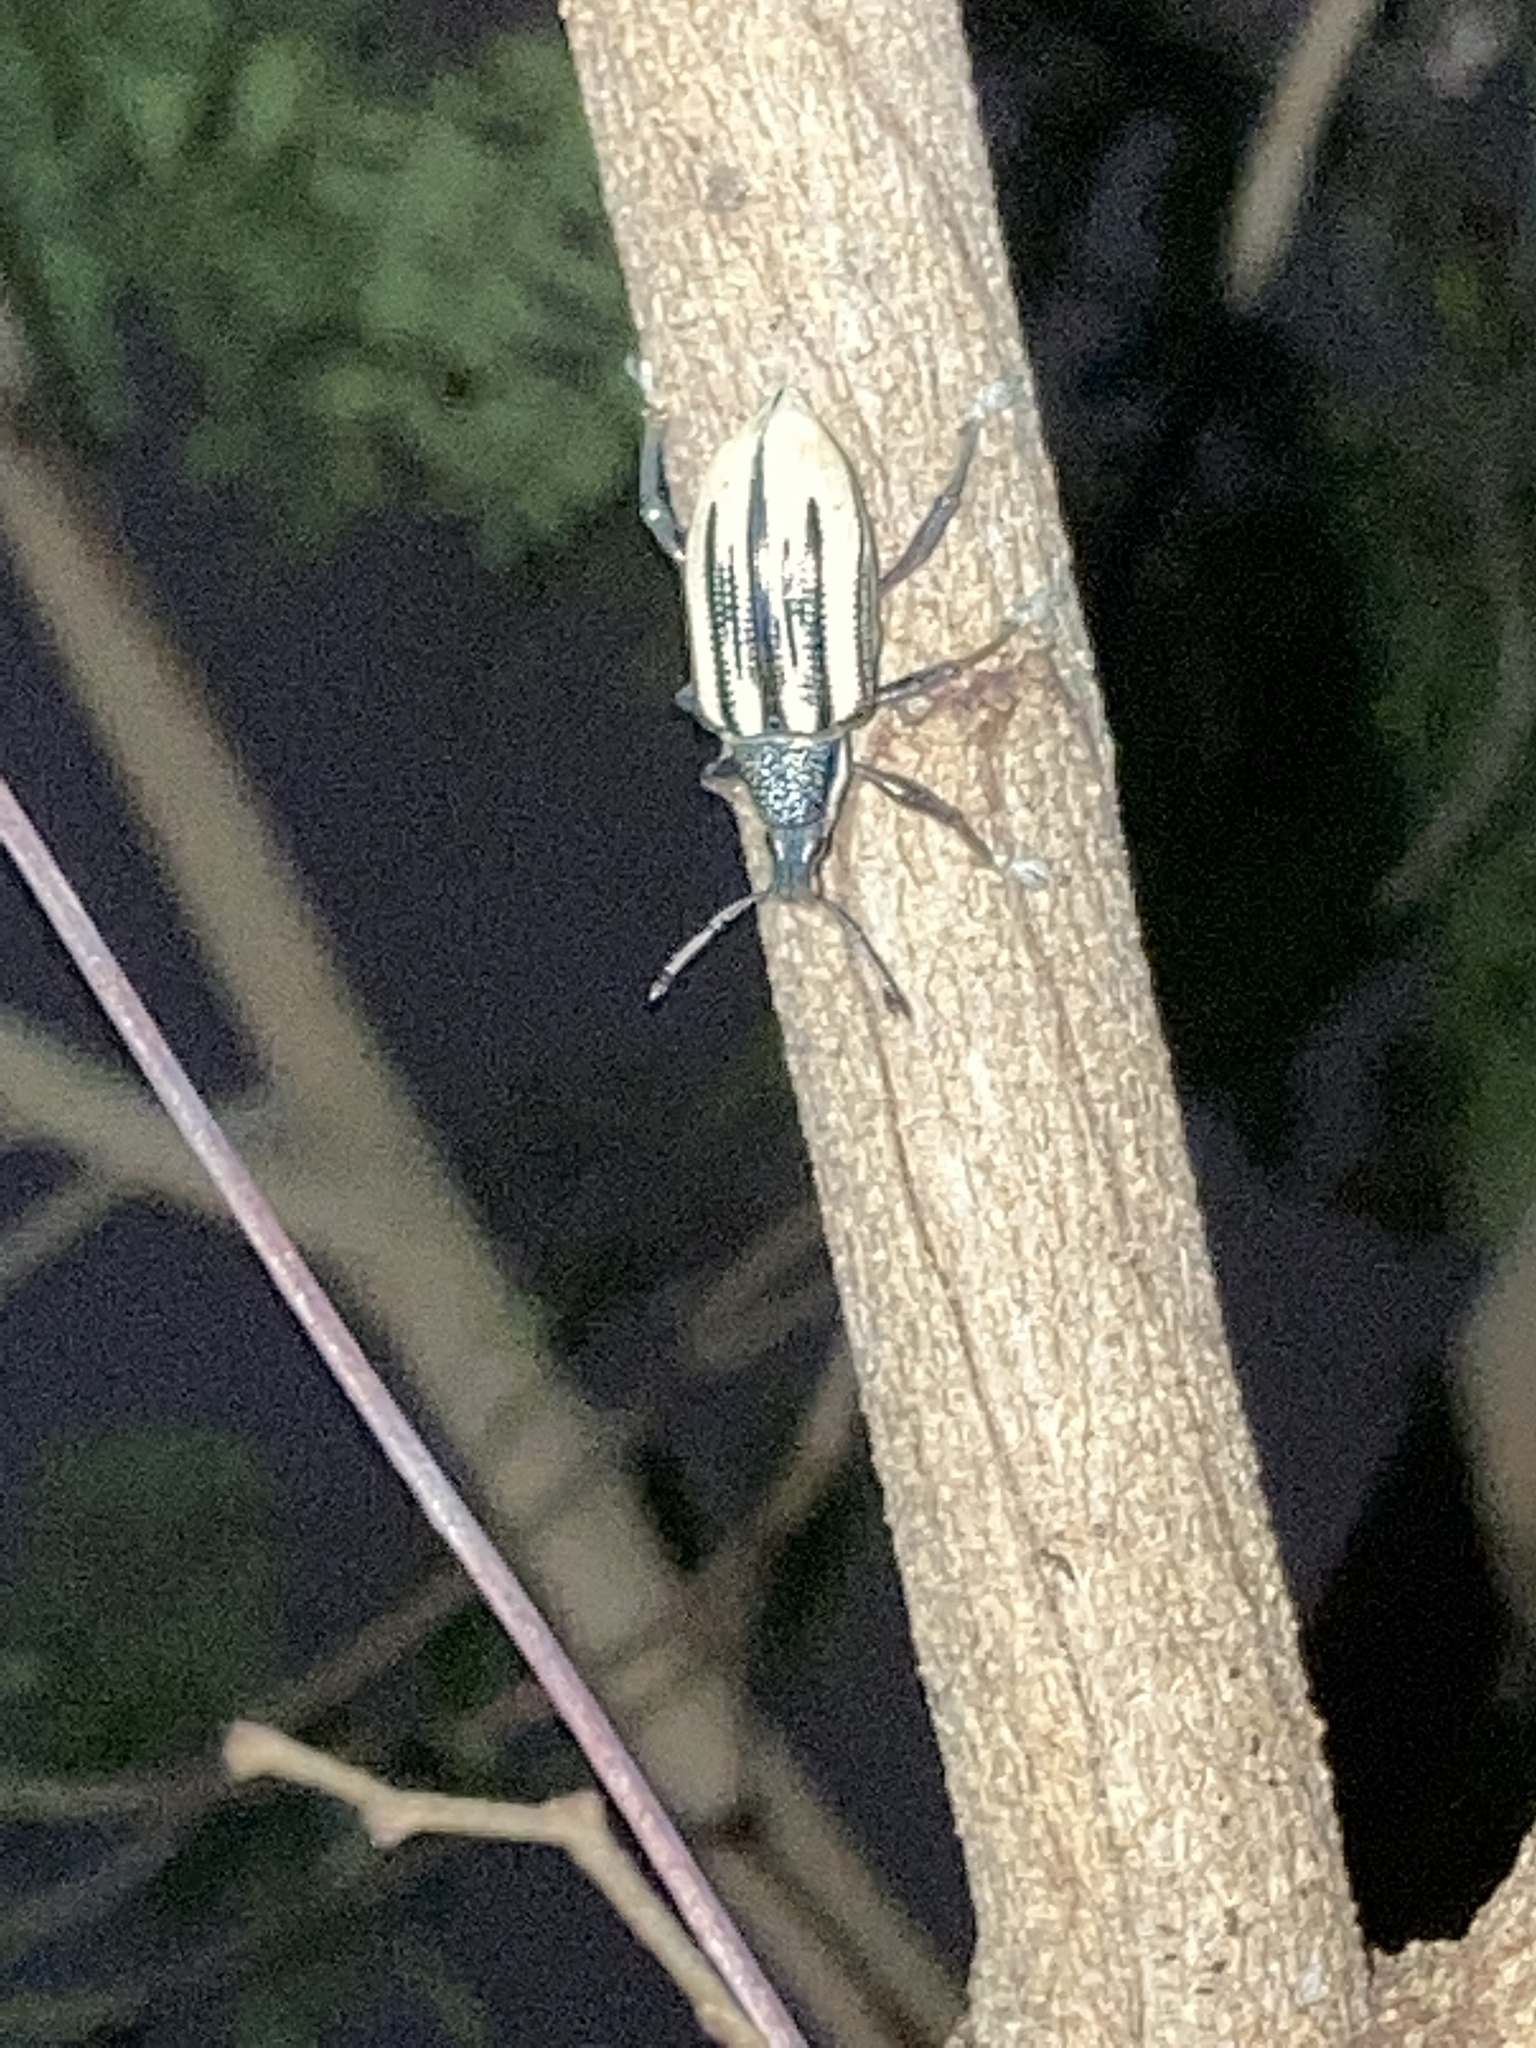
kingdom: Animalia
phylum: Arthropoda
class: Insecta
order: Coleoptera
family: Curculionidae
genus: Diaprepes
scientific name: Diaprepes abbreviatus
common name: Root weevil
